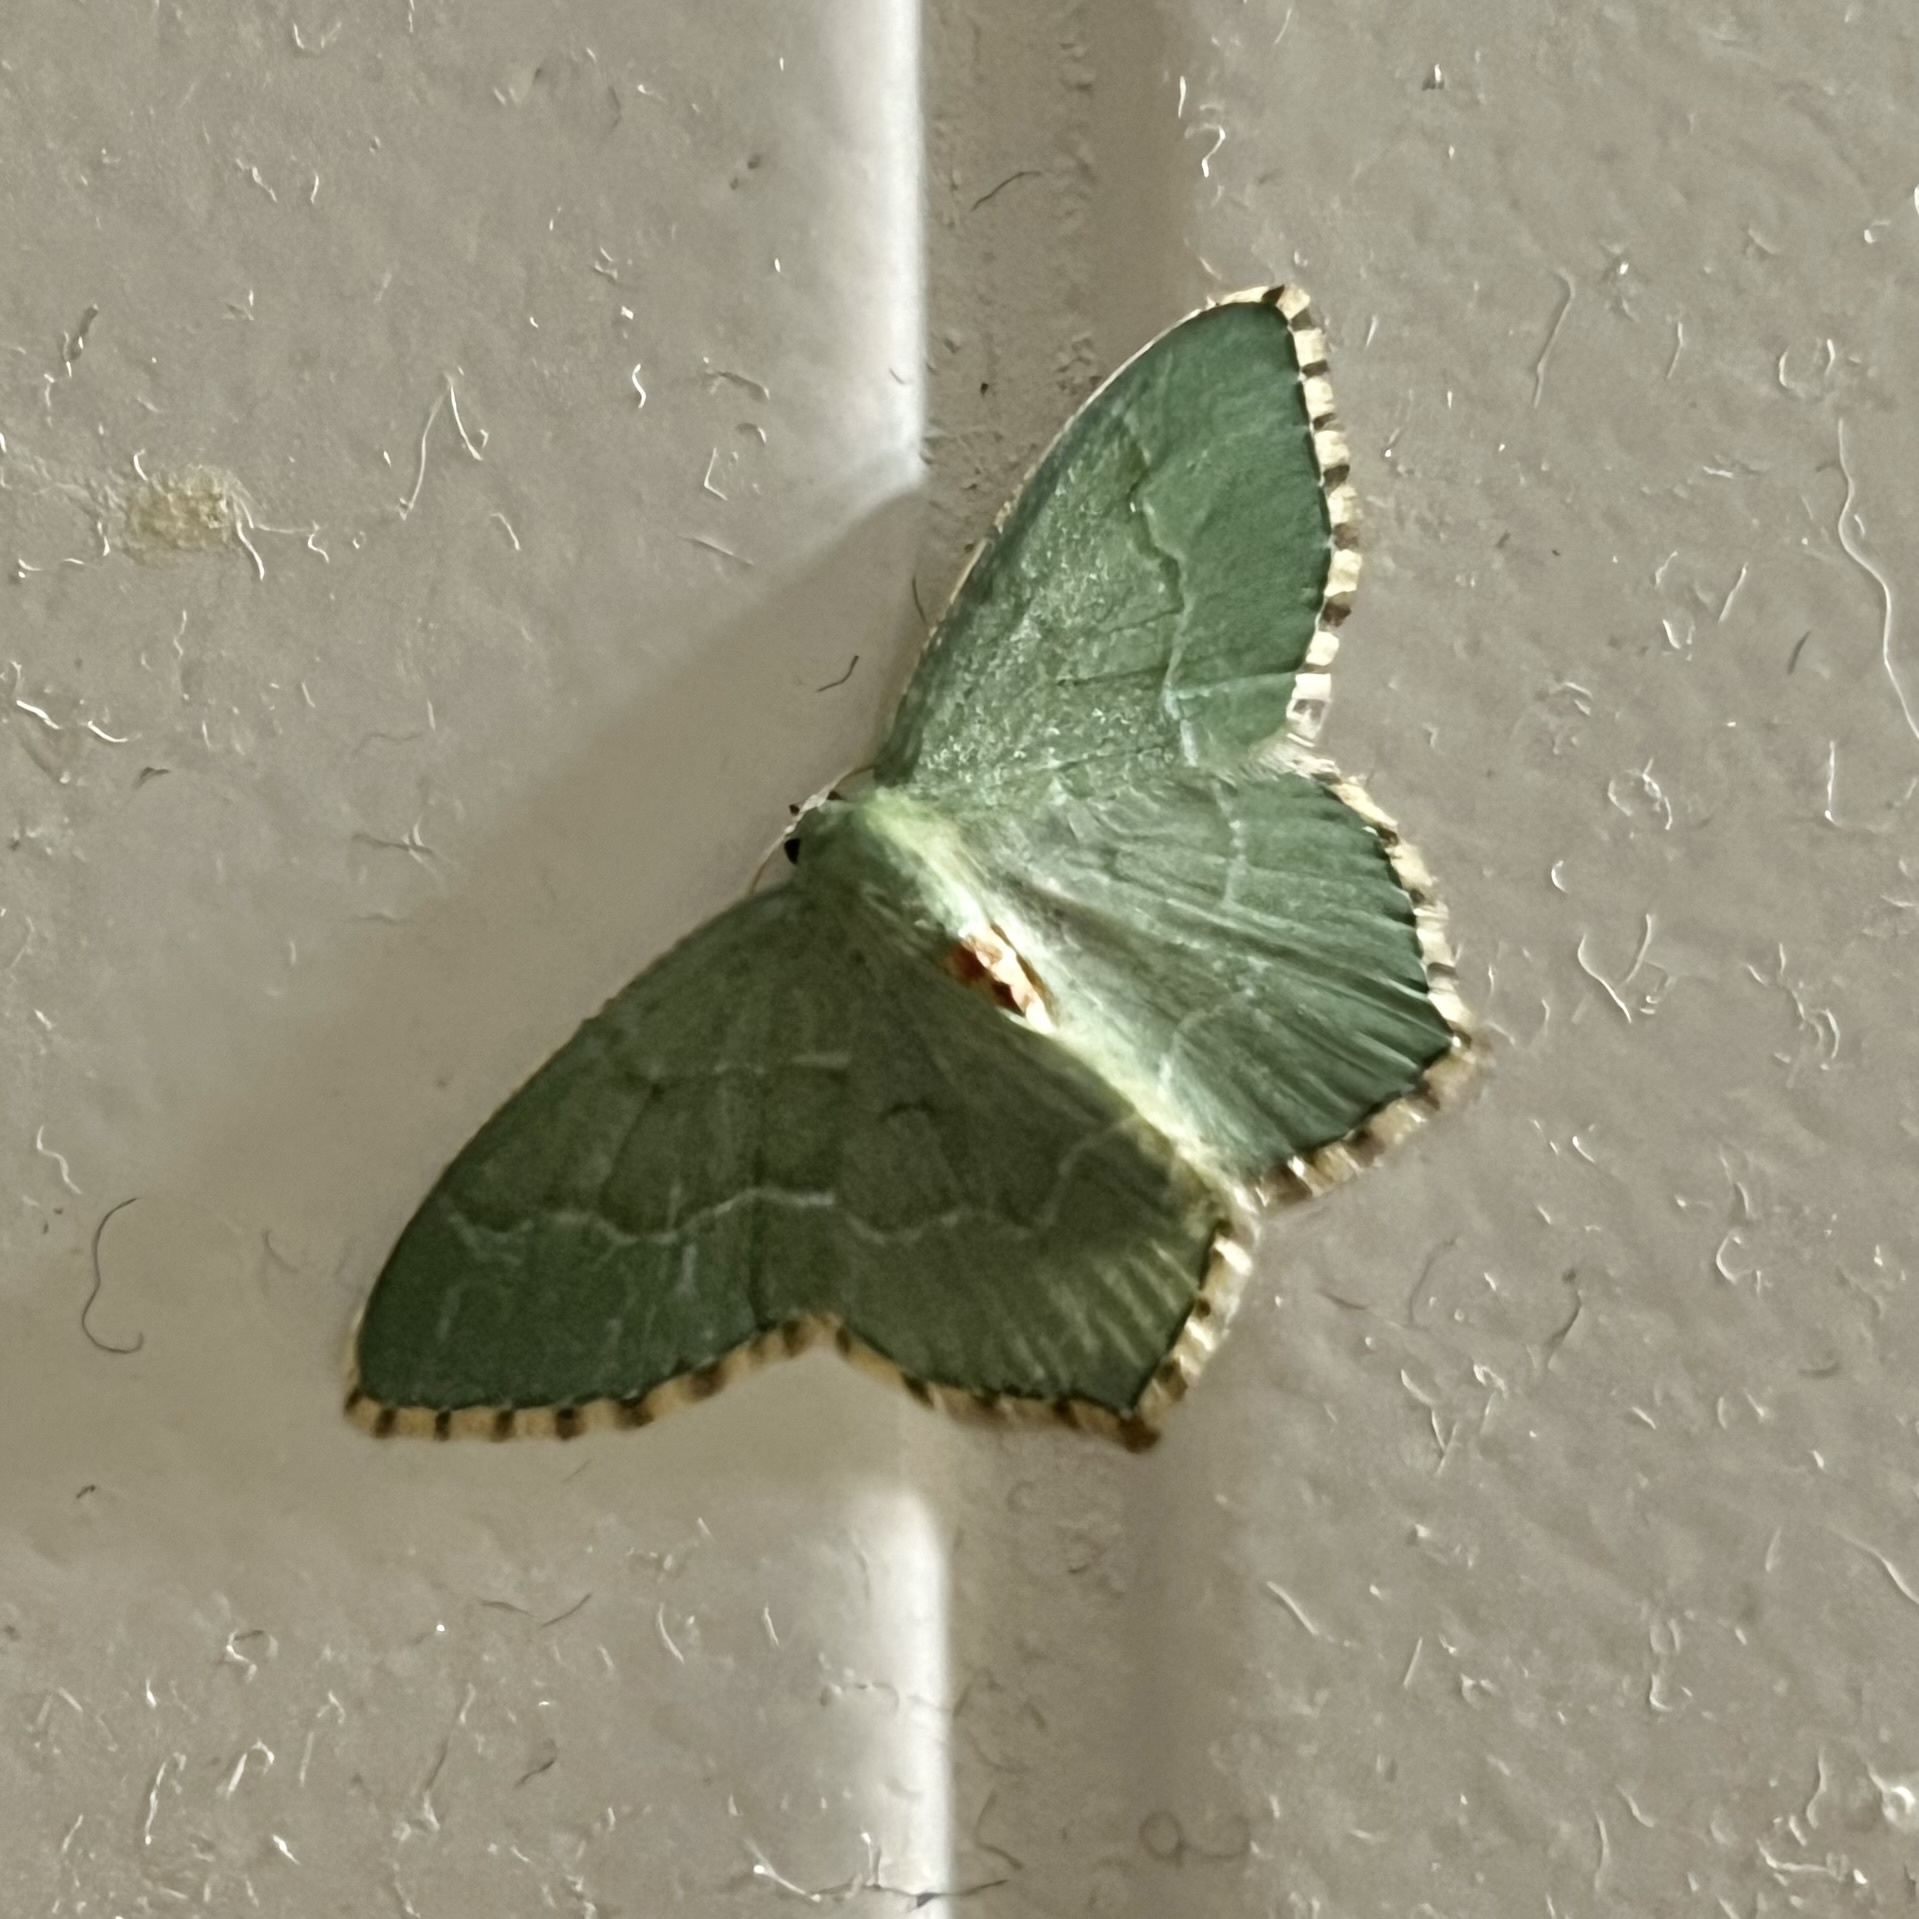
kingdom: Animalia
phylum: Arthropoda
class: Insecta
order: Lepidoptera
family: Geometridae
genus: Hemithea
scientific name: Hemithea aestivaria
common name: Common emerald
